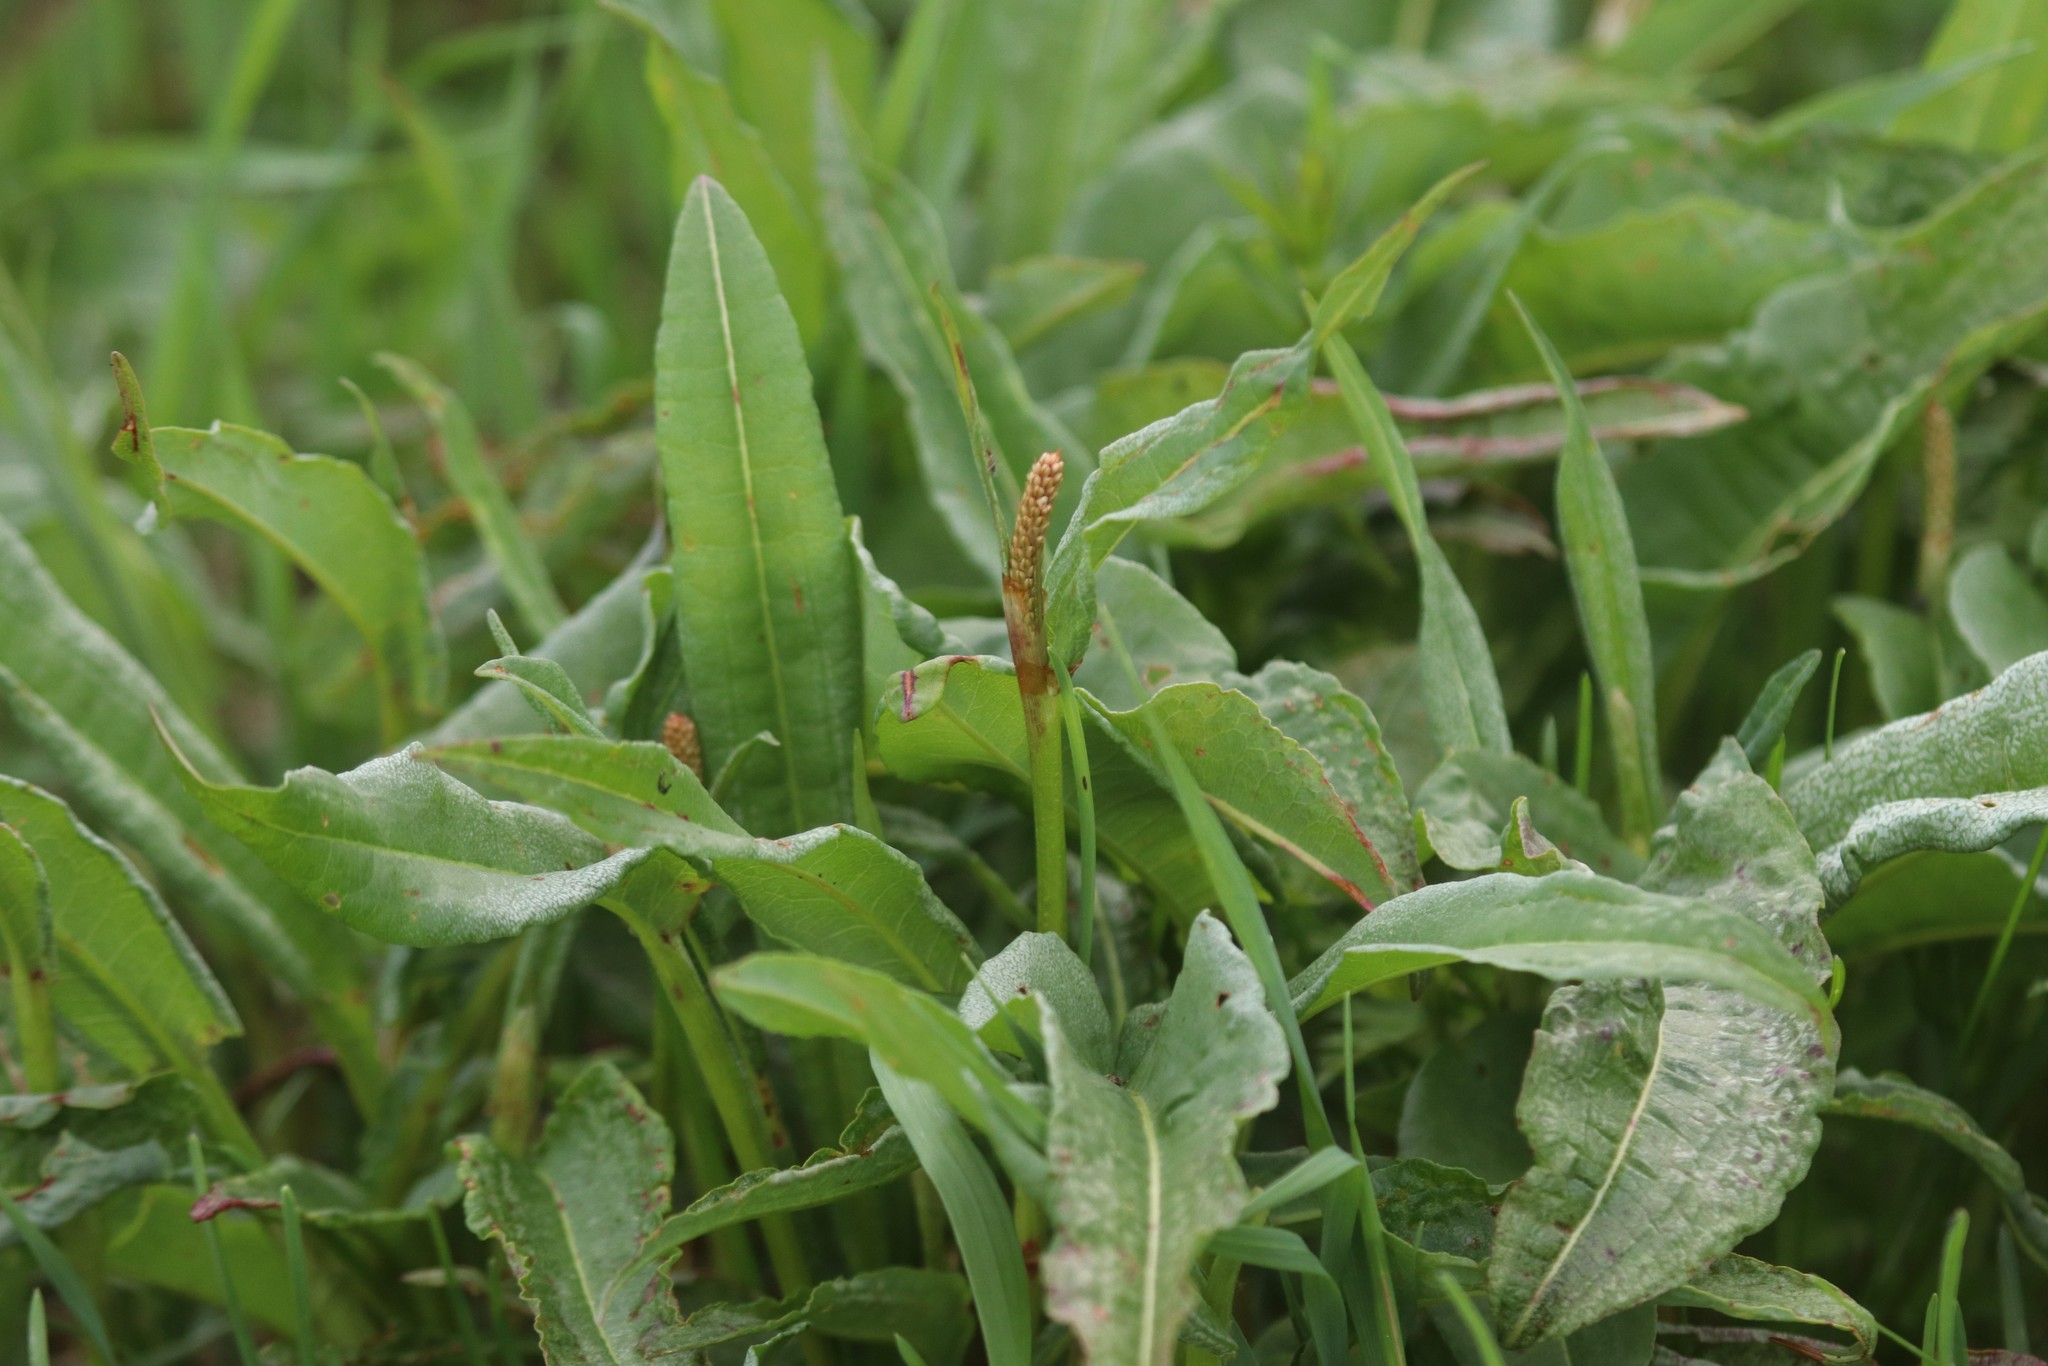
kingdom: Plantae
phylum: Tracheophyta
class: Magnoliopsida
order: Caryophyllales
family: Polygonaceae
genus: Bistorta
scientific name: Bistorta officinalis
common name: Common bistort
